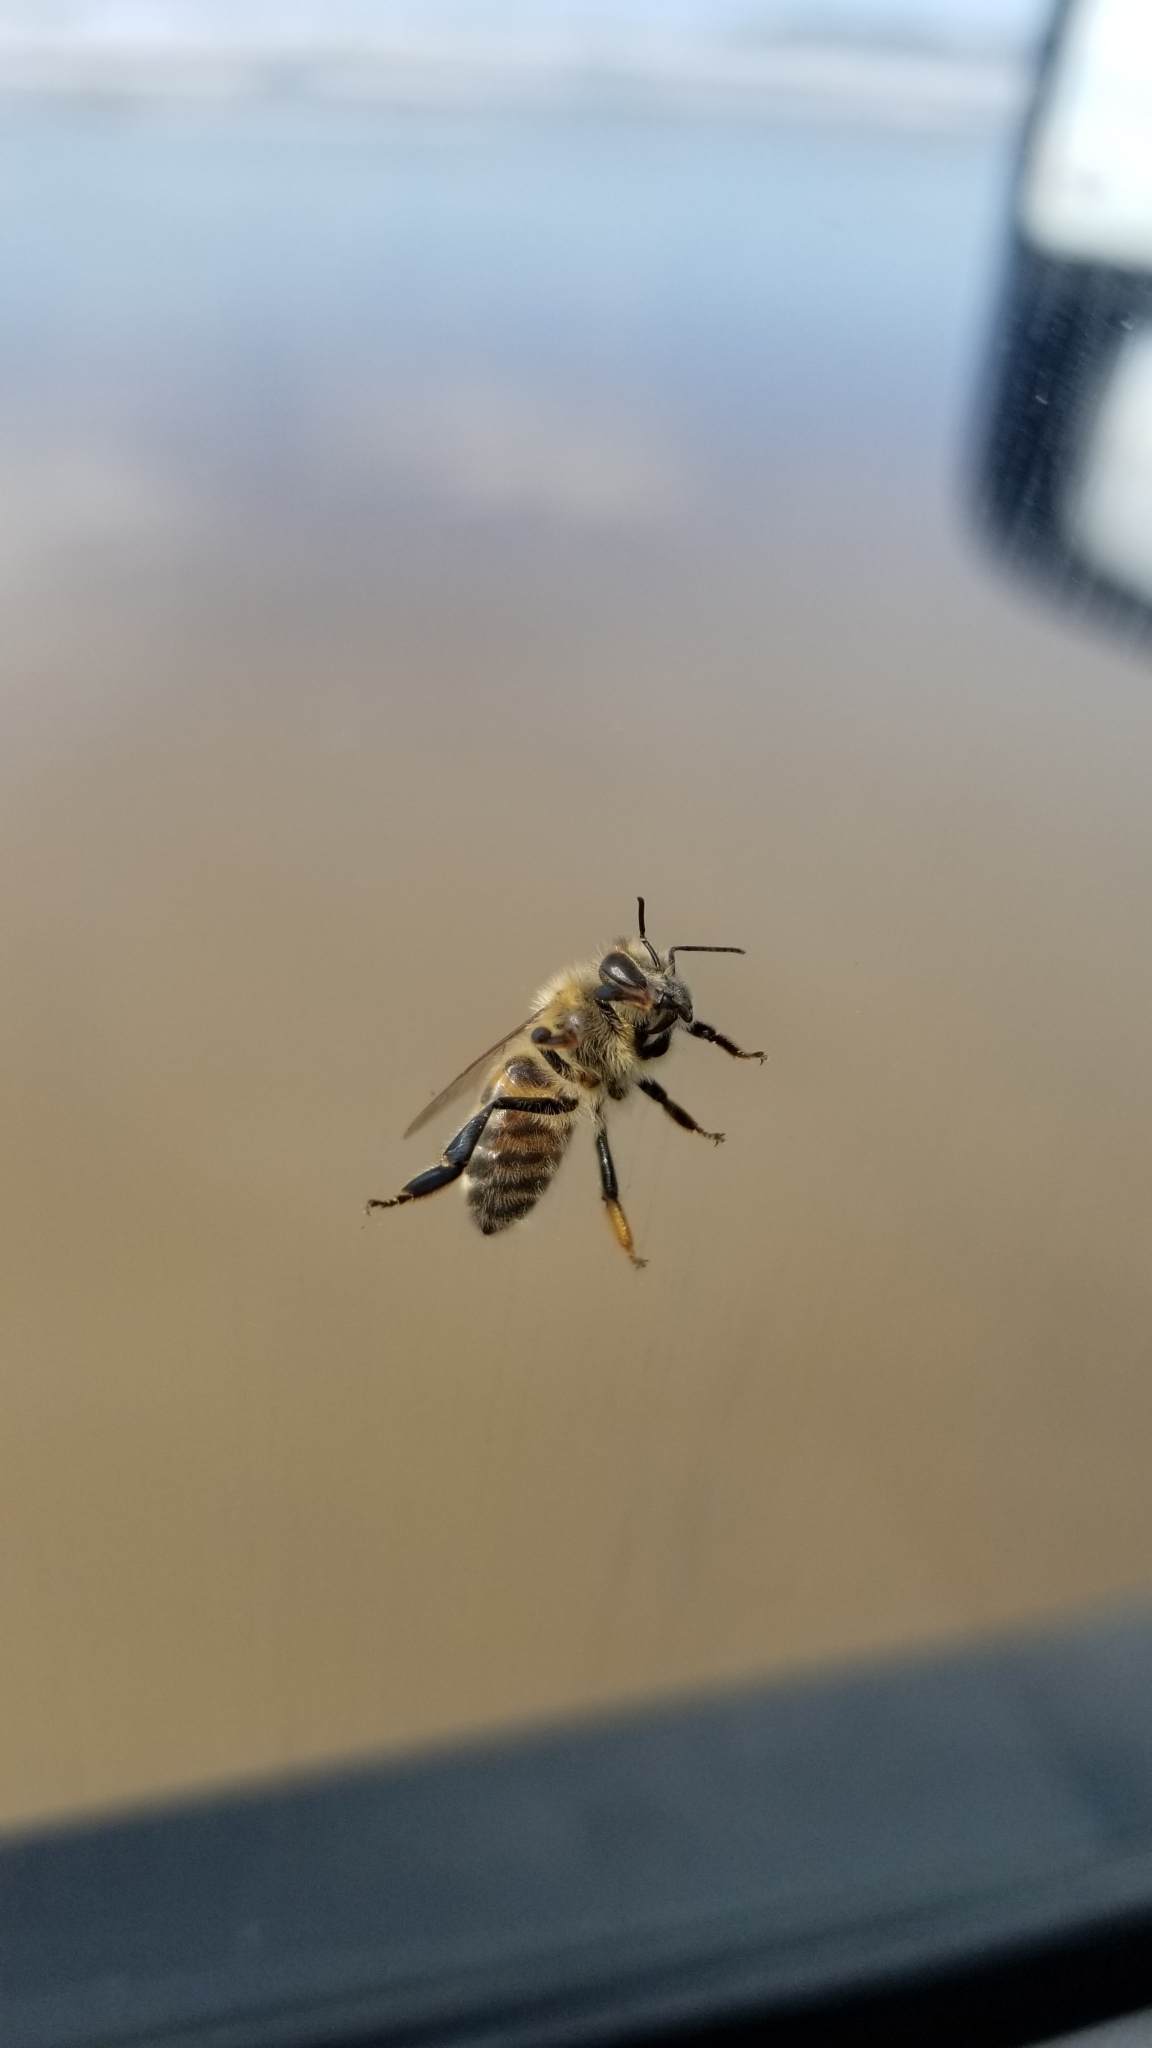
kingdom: Animalia
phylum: Arthropoda
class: Insecta
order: Hymenoptera
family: Apidae
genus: Apis
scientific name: Apis mellifera
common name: Honey bee
